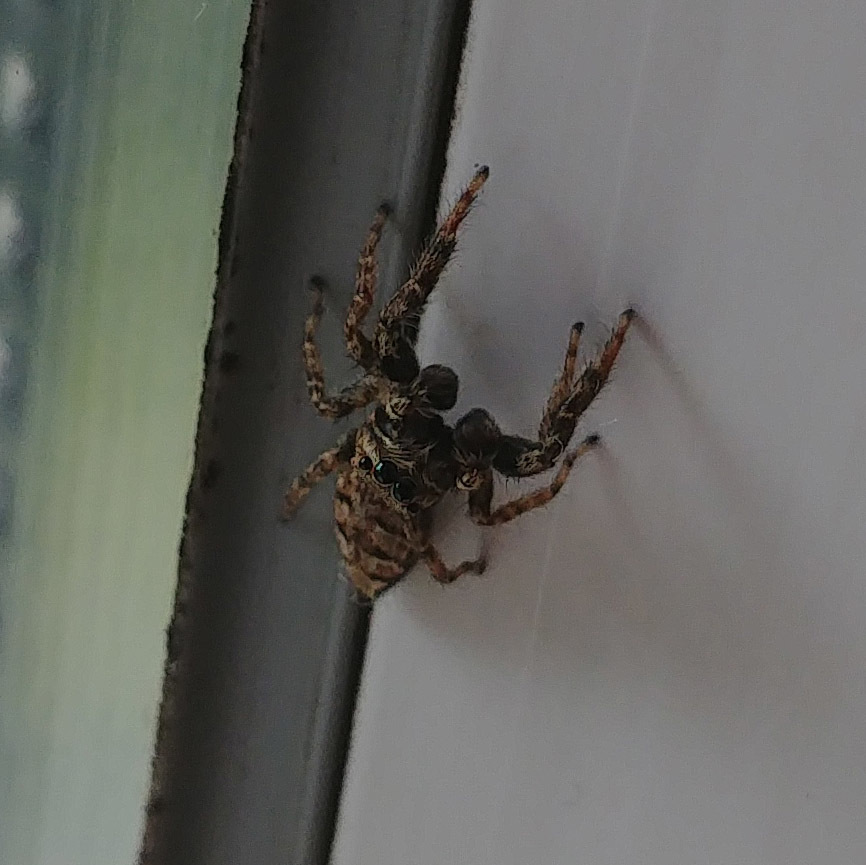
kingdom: Animalia
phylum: Arthropoda
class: Arachnida
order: Araneae
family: Salticidae
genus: Marpissa
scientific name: Marpissa muscosa
